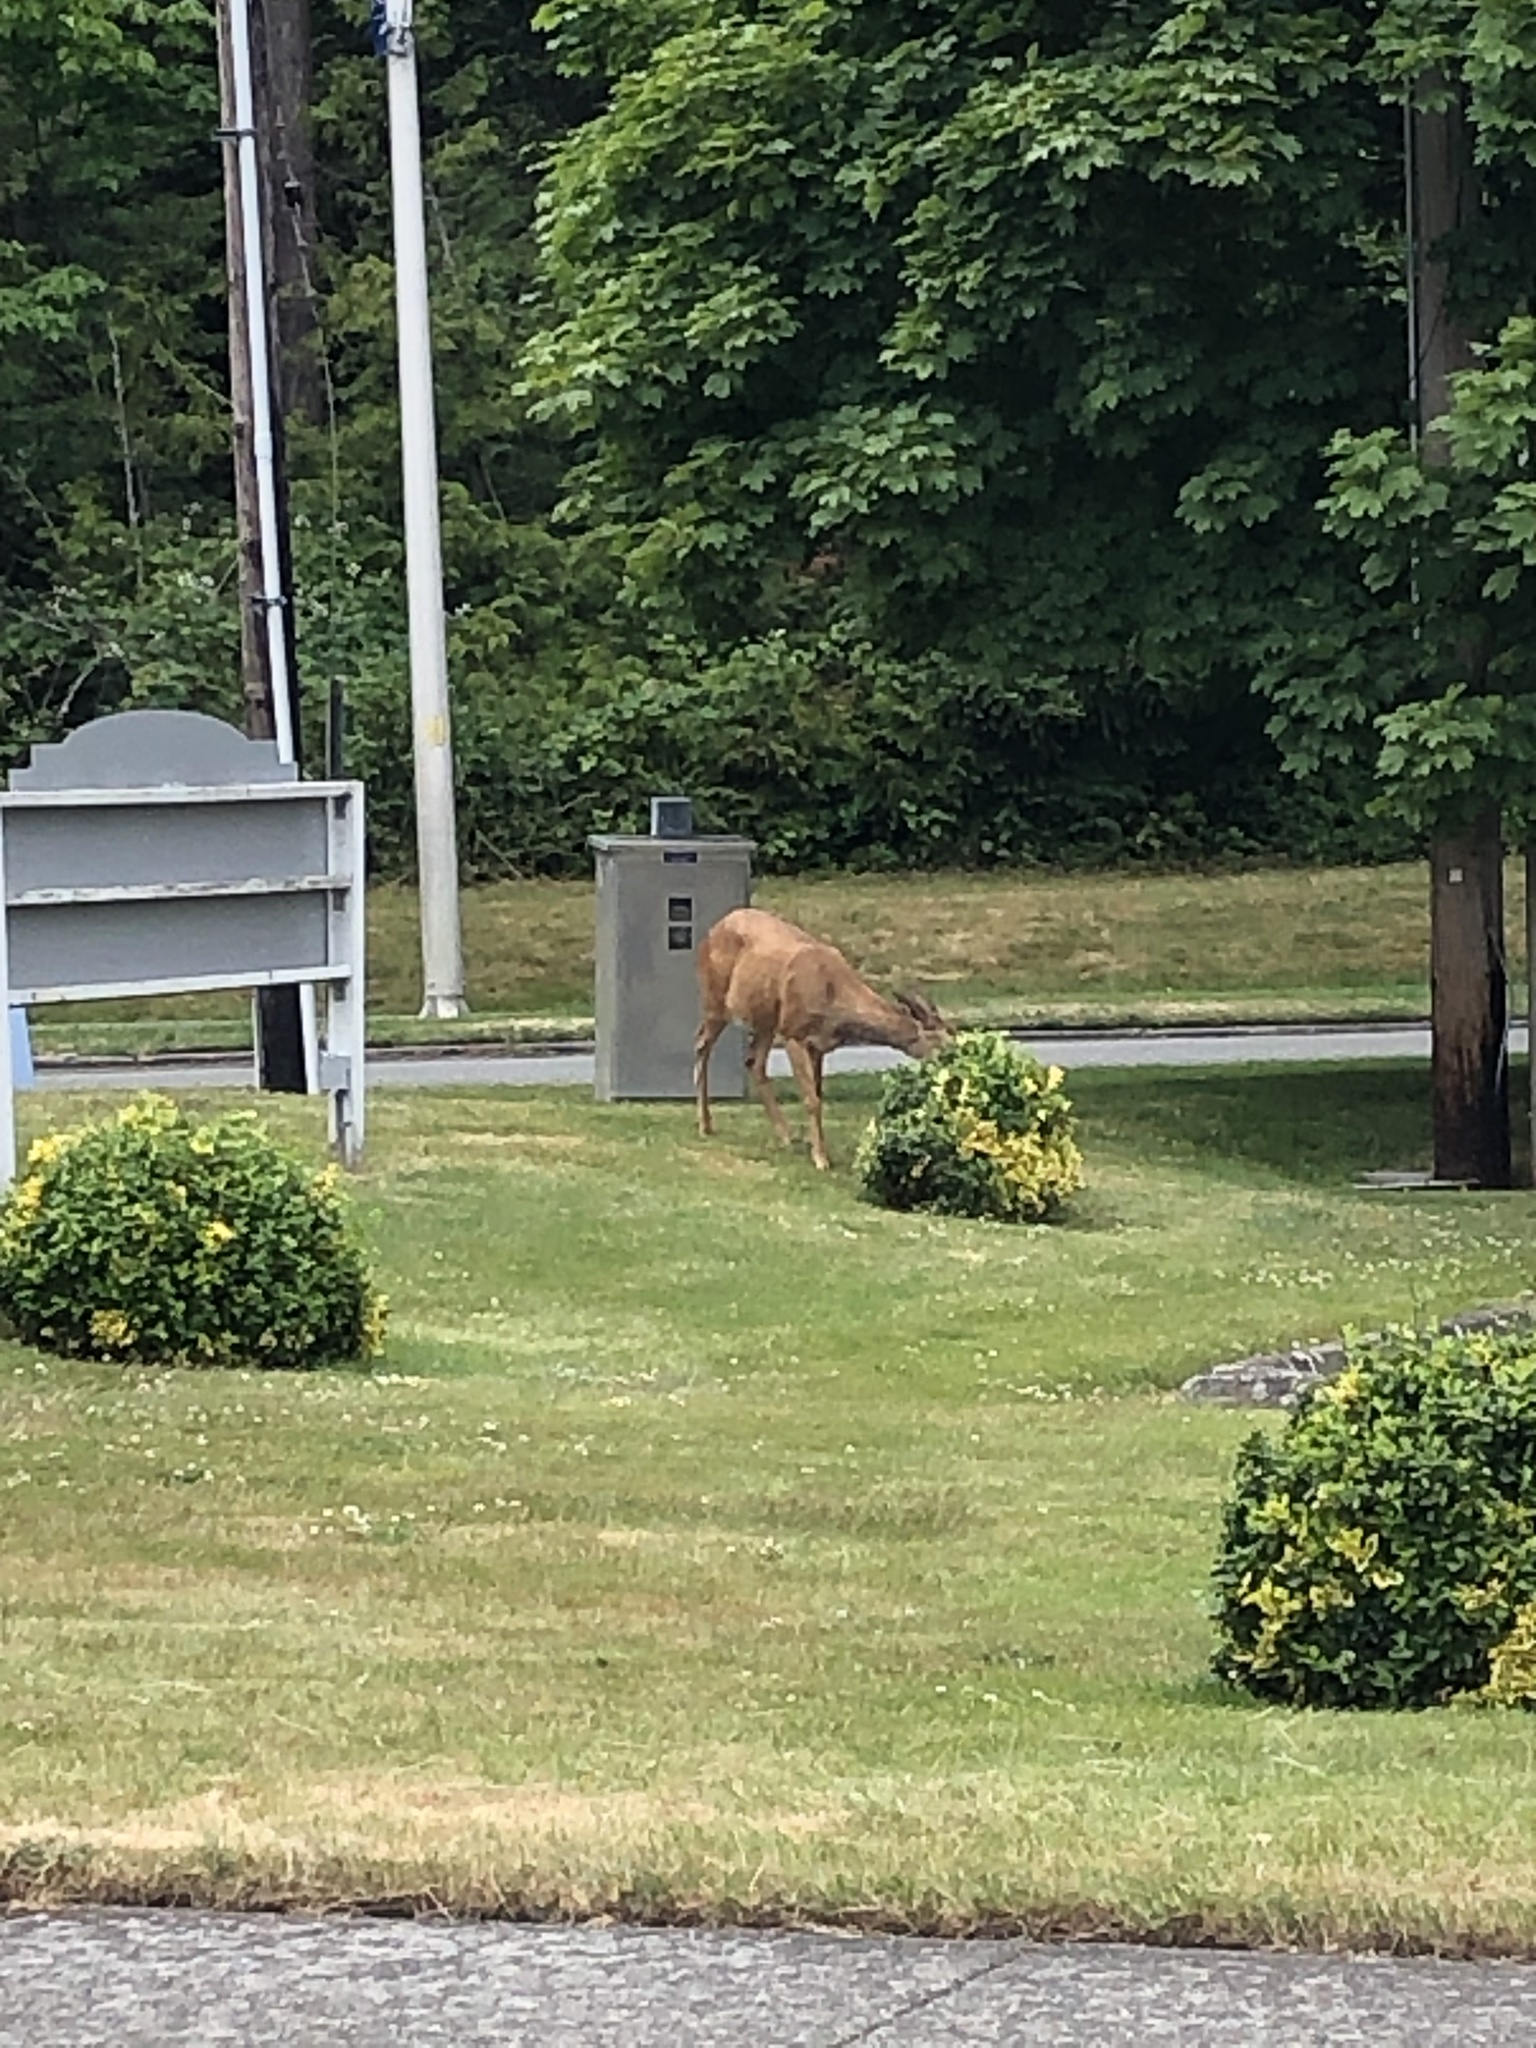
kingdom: Animalia
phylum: Chordata
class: Mammalia
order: Artiodactyla
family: Cervidae
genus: Odocoileus
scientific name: Odocoileus hemionus
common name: Mule deer
